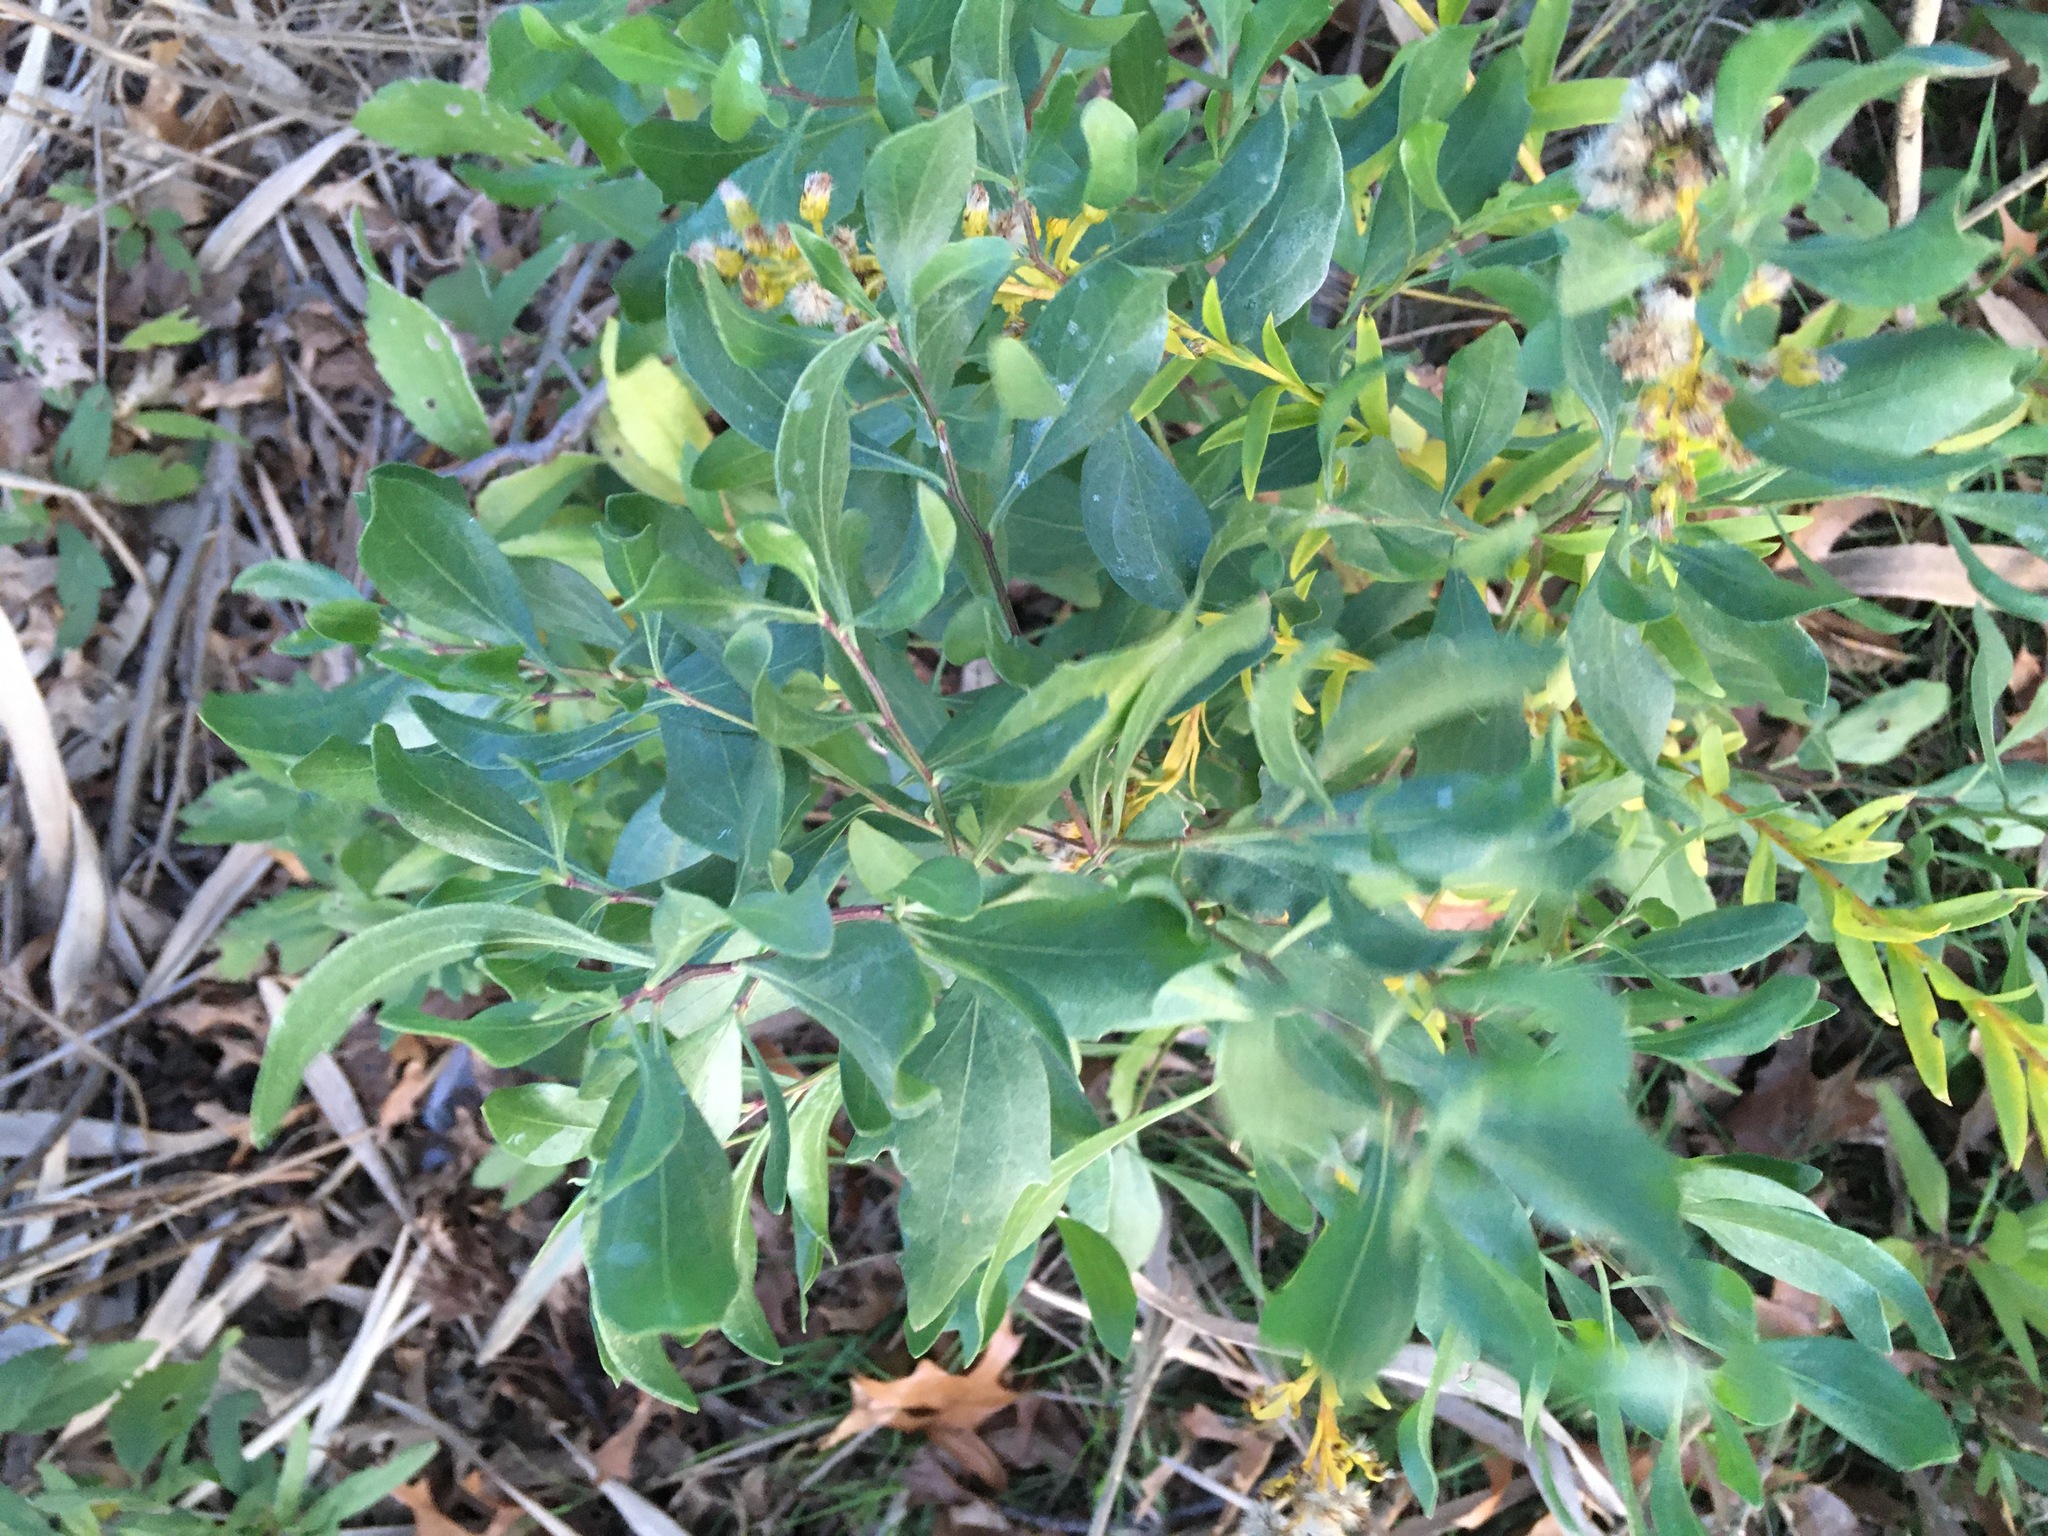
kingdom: Plantae
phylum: Tracheophyta
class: Magnoliopsida
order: Asterales
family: Asteraceae
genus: Baccharis
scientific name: Baccharis halimifolia
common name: Eastern baccharis
